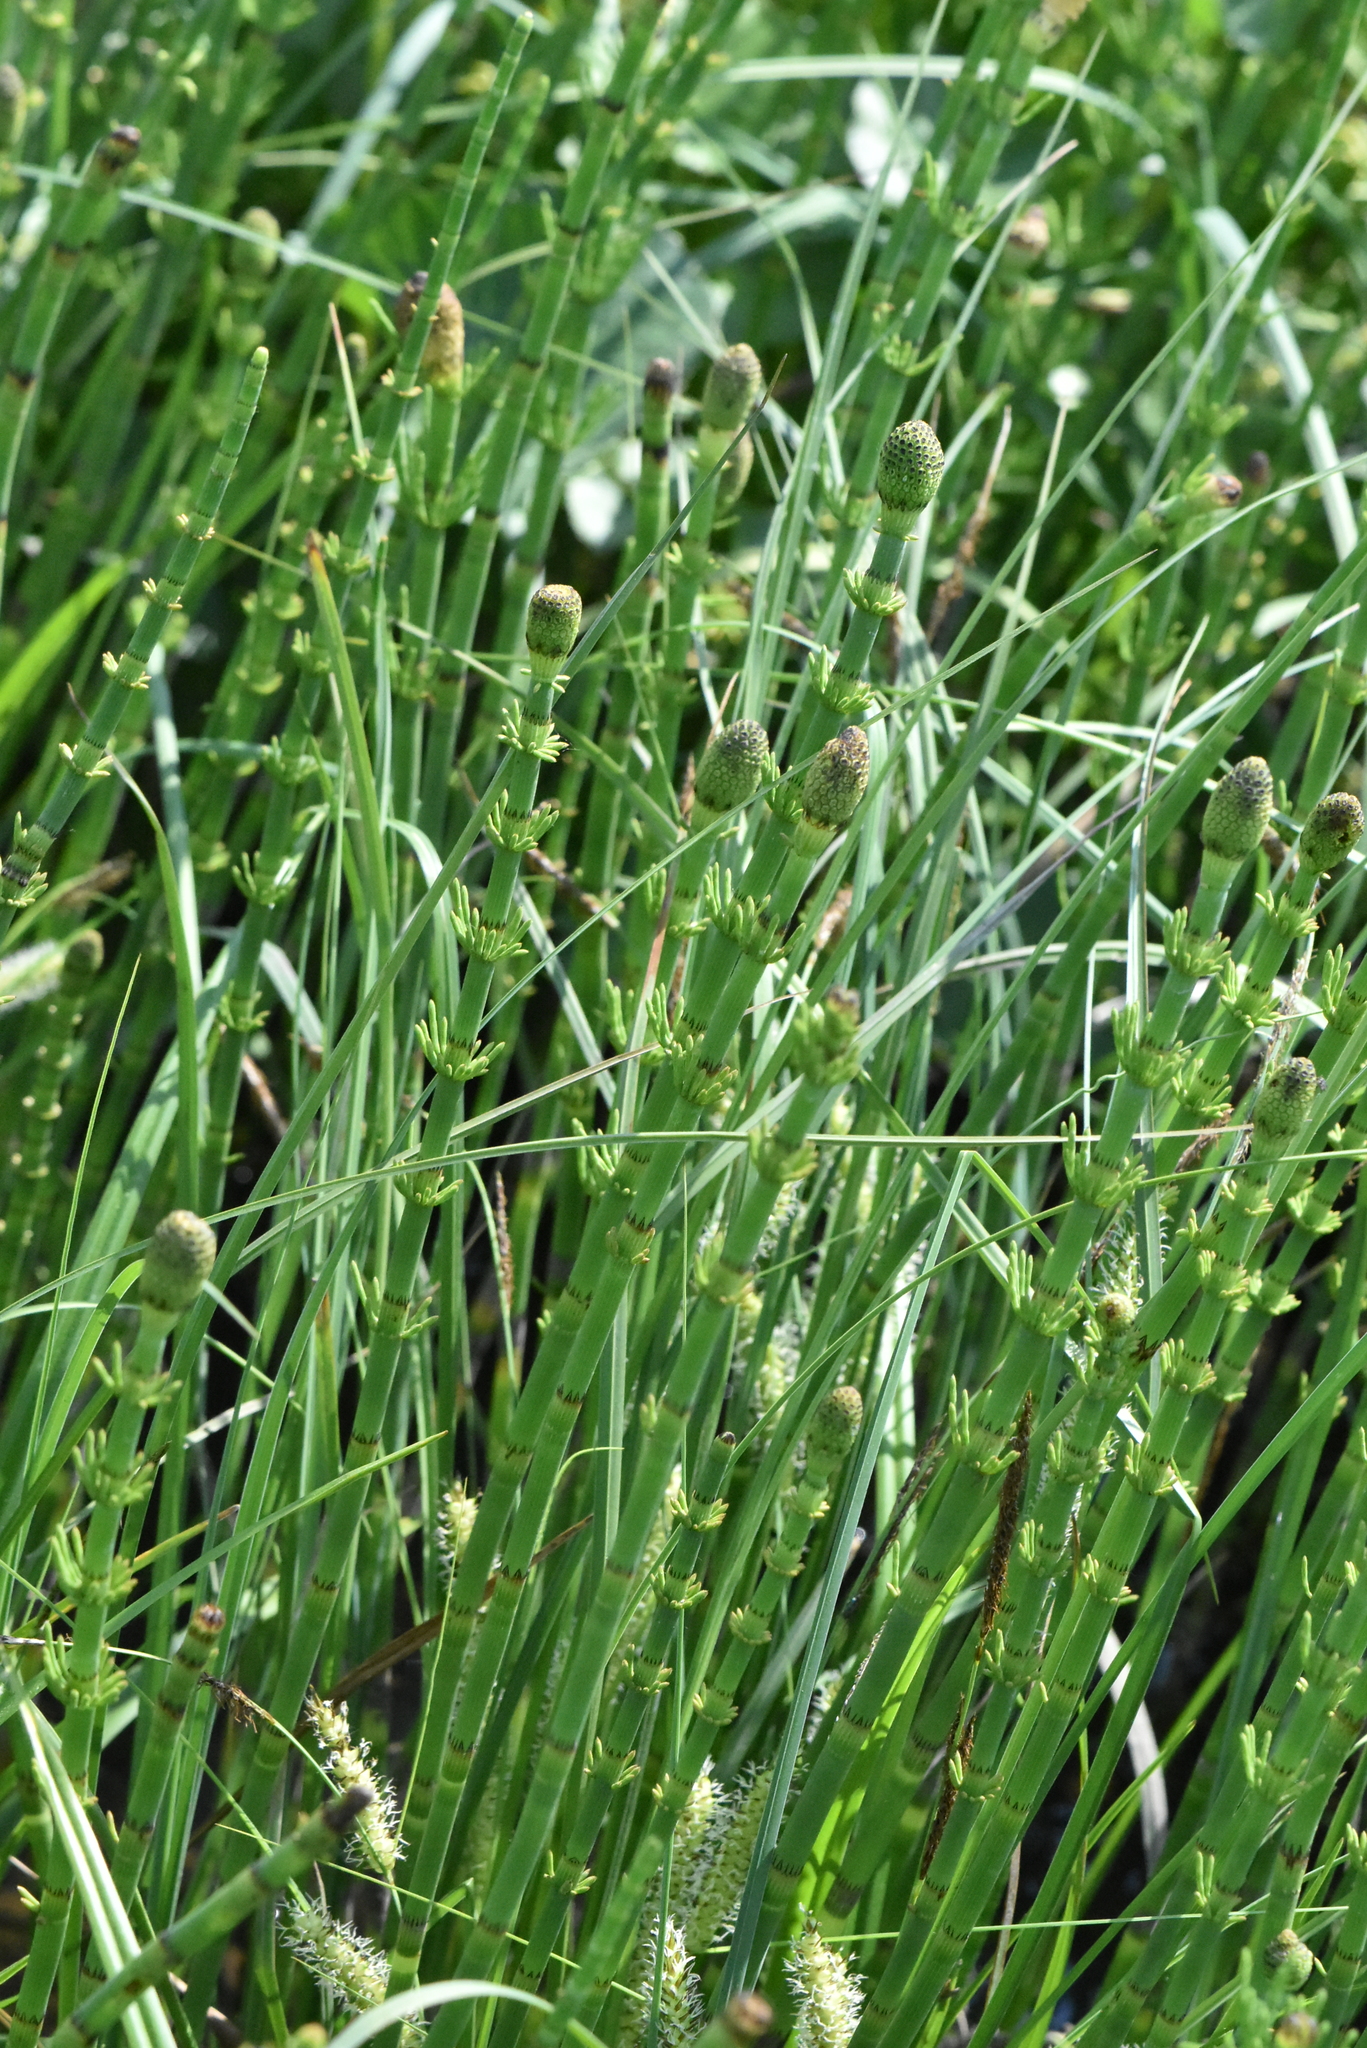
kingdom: Plantae
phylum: Tracheophyta
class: Polypodiopsida
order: Equisetales
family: Equisetaceae
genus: Equisetum
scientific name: Equisetum fluviatile
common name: Water horsetail
